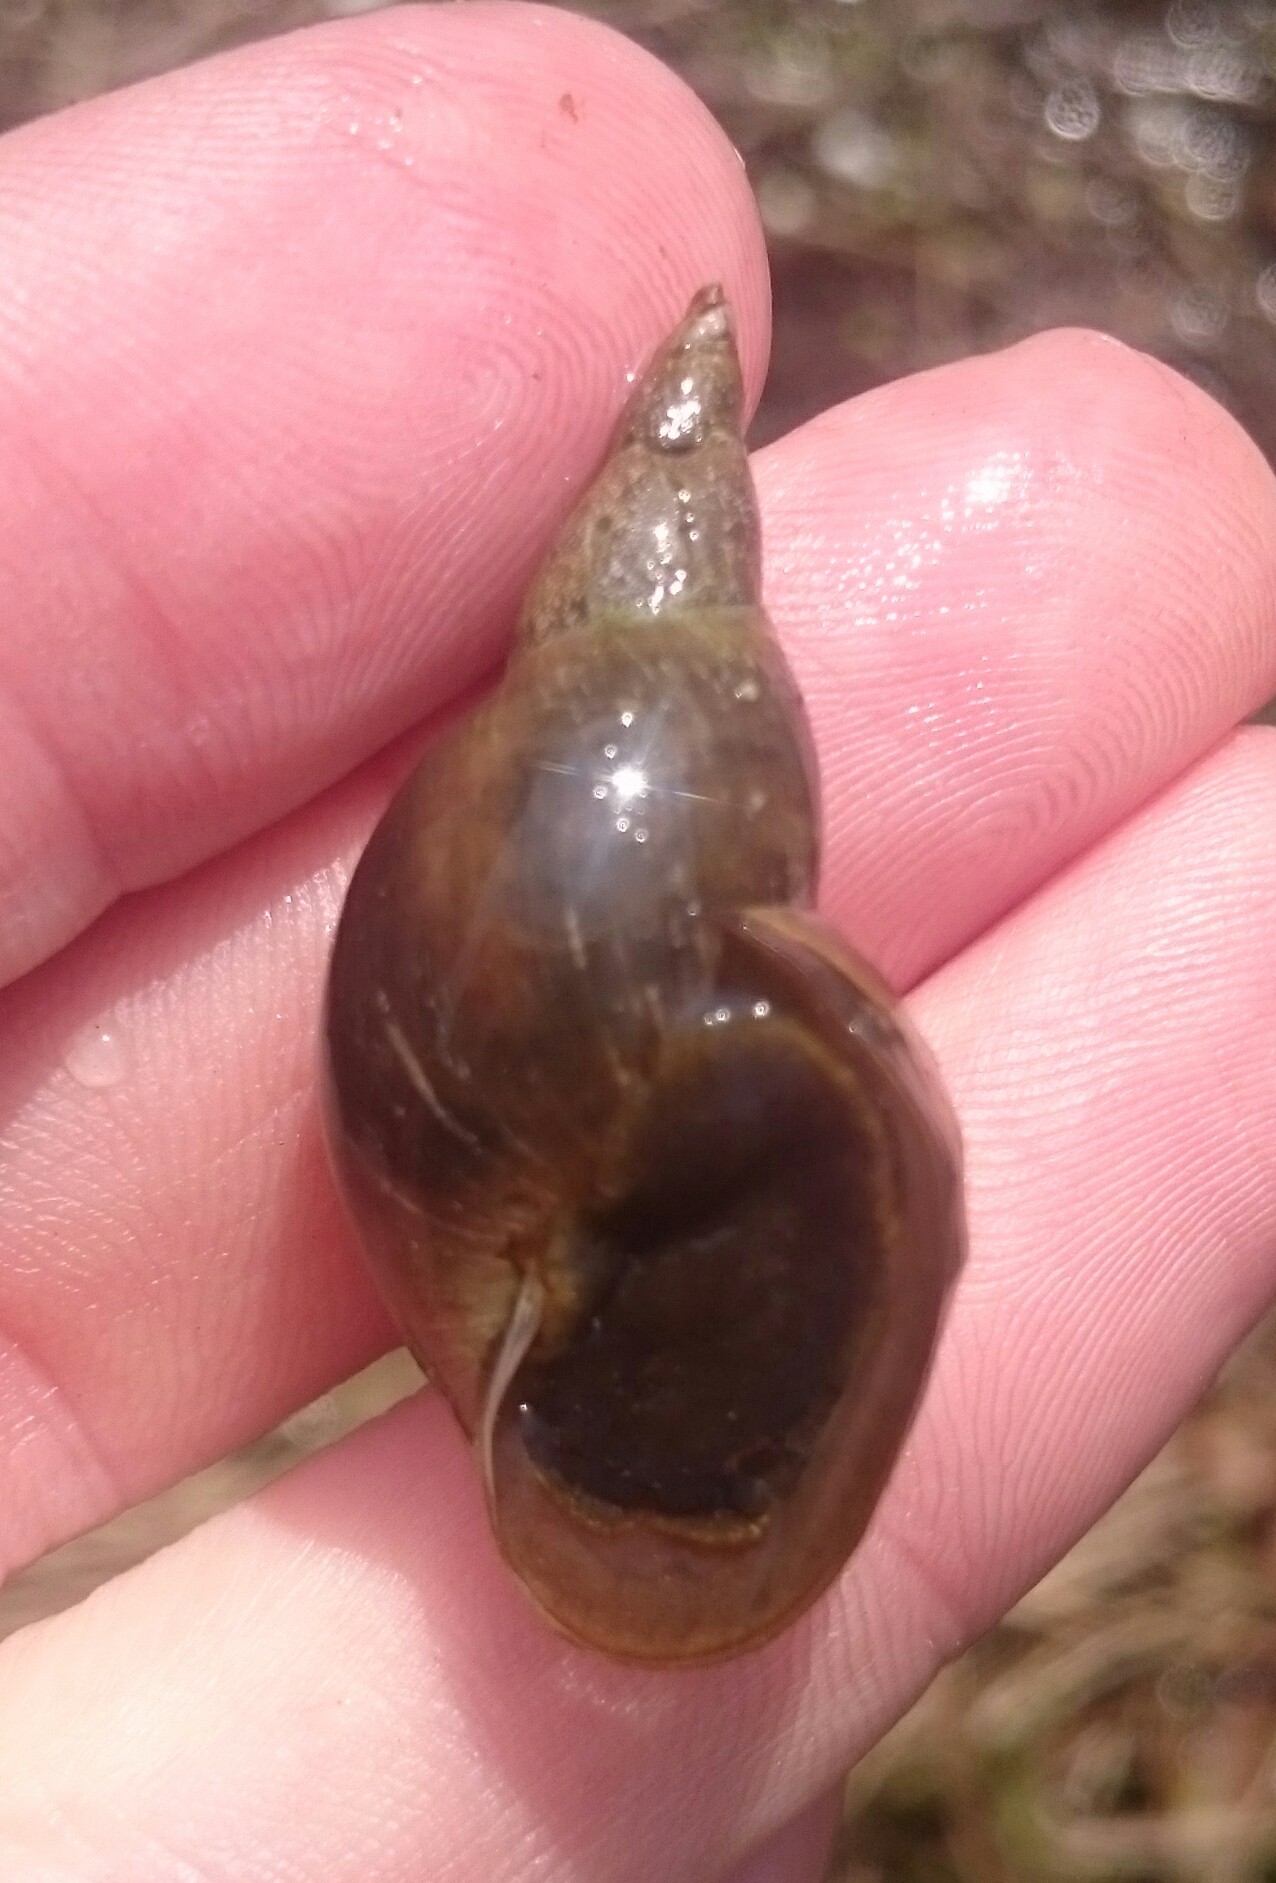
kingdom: Animalia
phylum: Mollusca
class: Gastropoda
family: Lymnaeidae
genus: Lymnaea
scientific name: Lymnaea stagnalis
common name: Great pond snail
